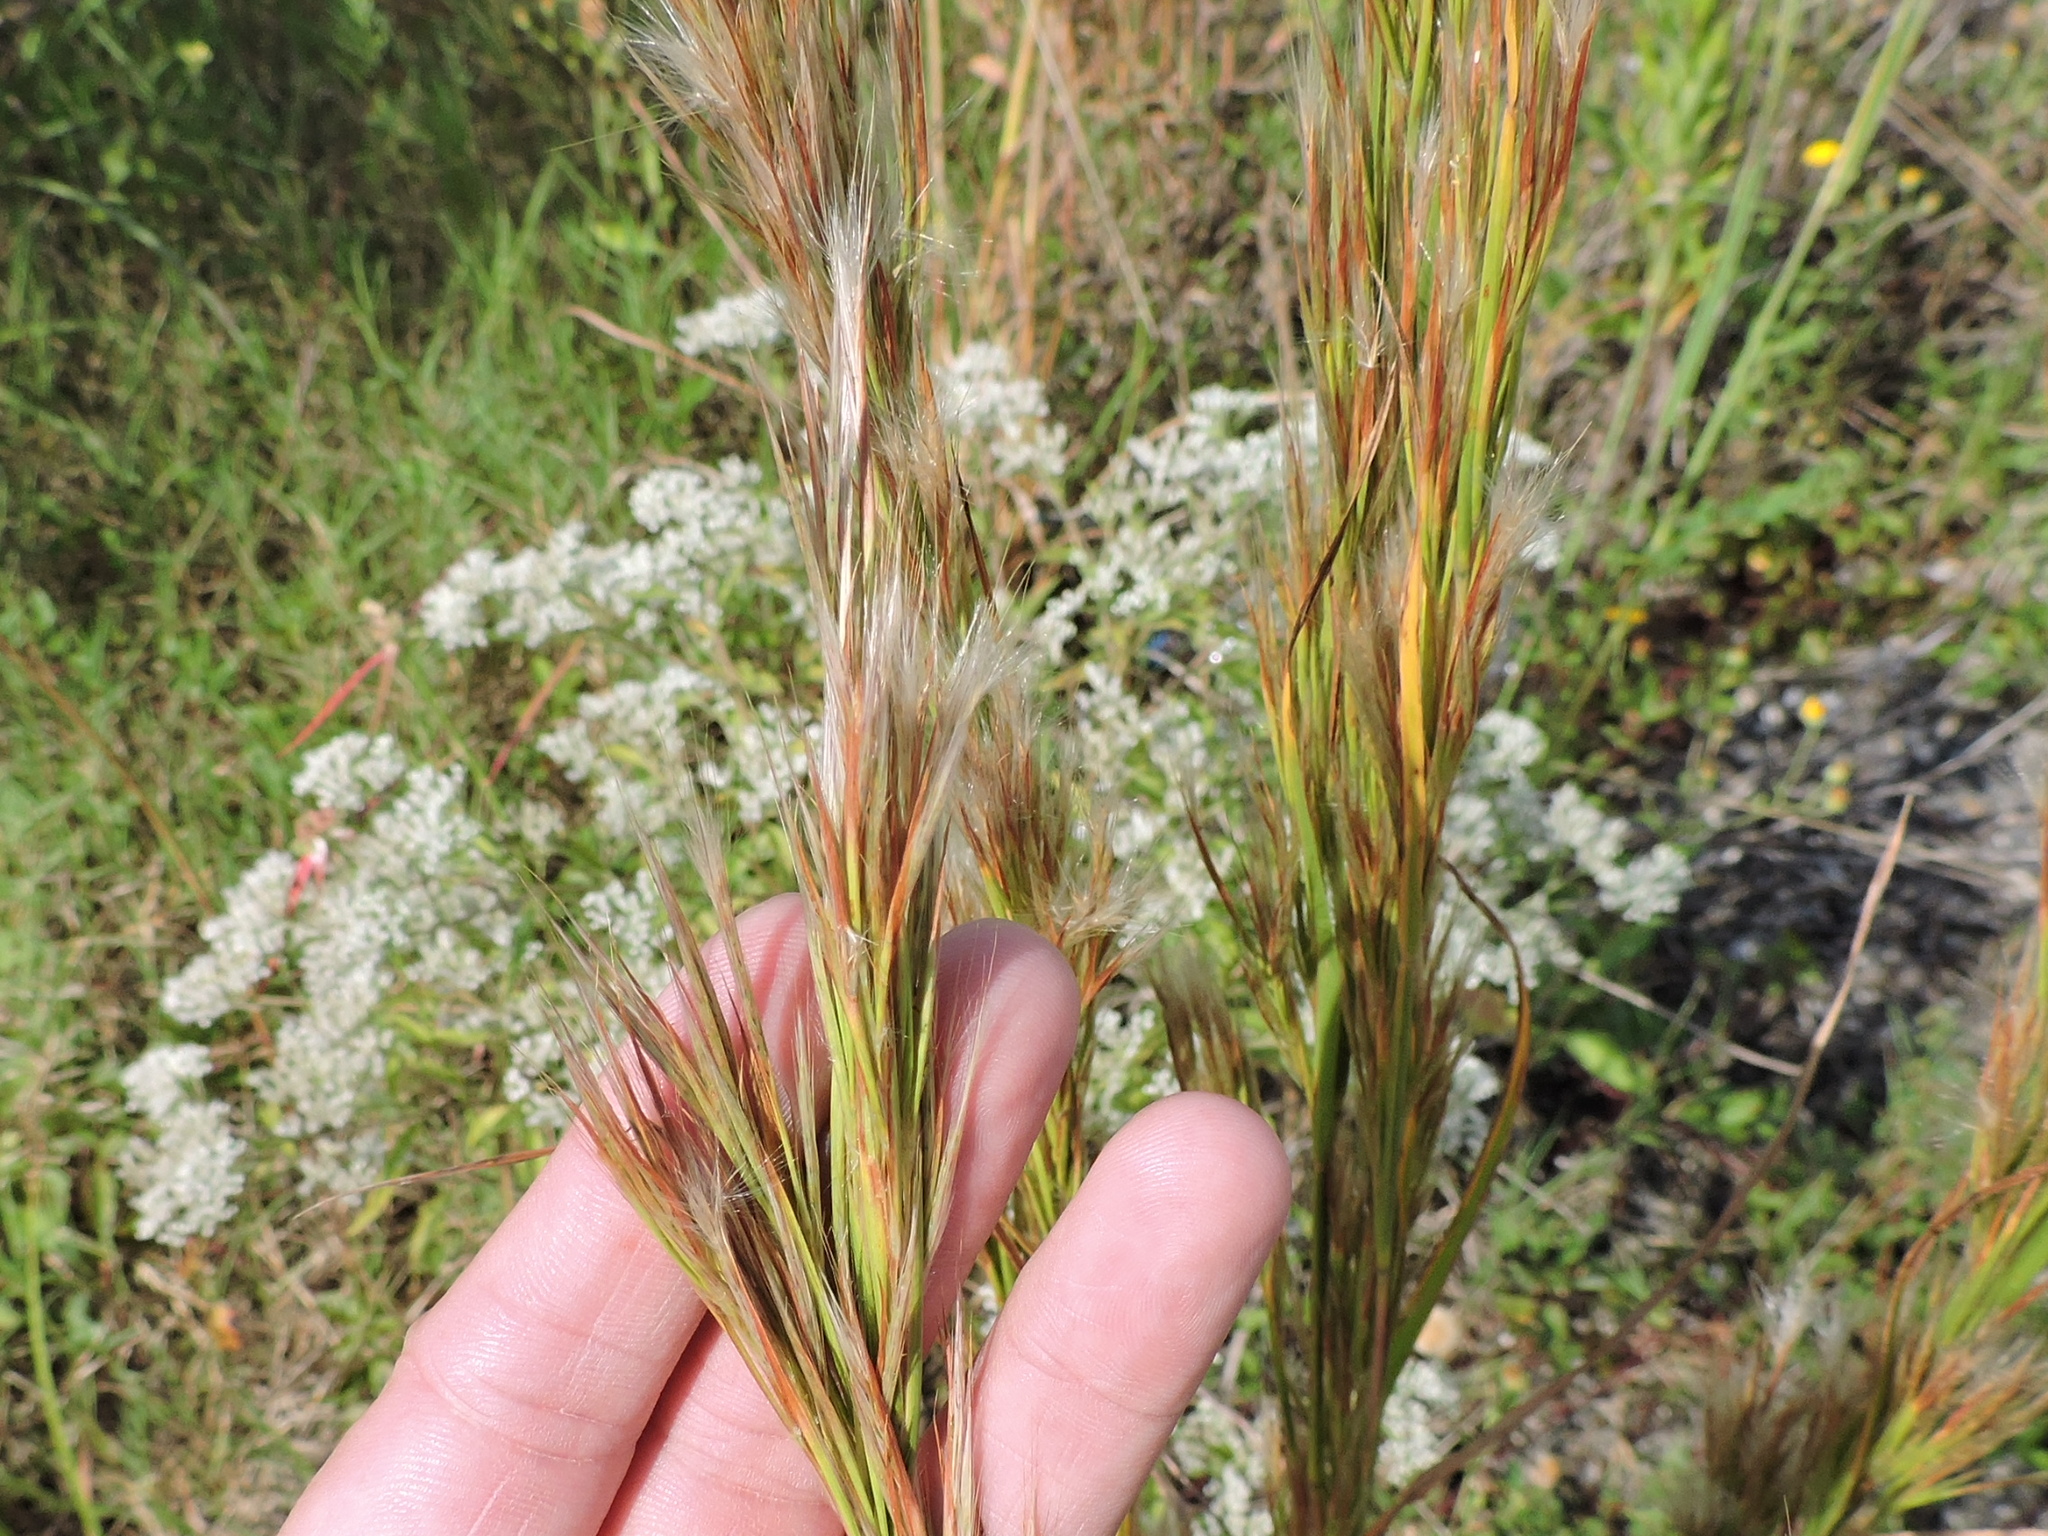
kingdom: Plantae
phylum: Tracheophyta
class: Liliopsida
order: Poales
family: Poaceae
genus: Andropogon
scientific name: Andropogon tenuispatheus
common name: Bushy bluestem
